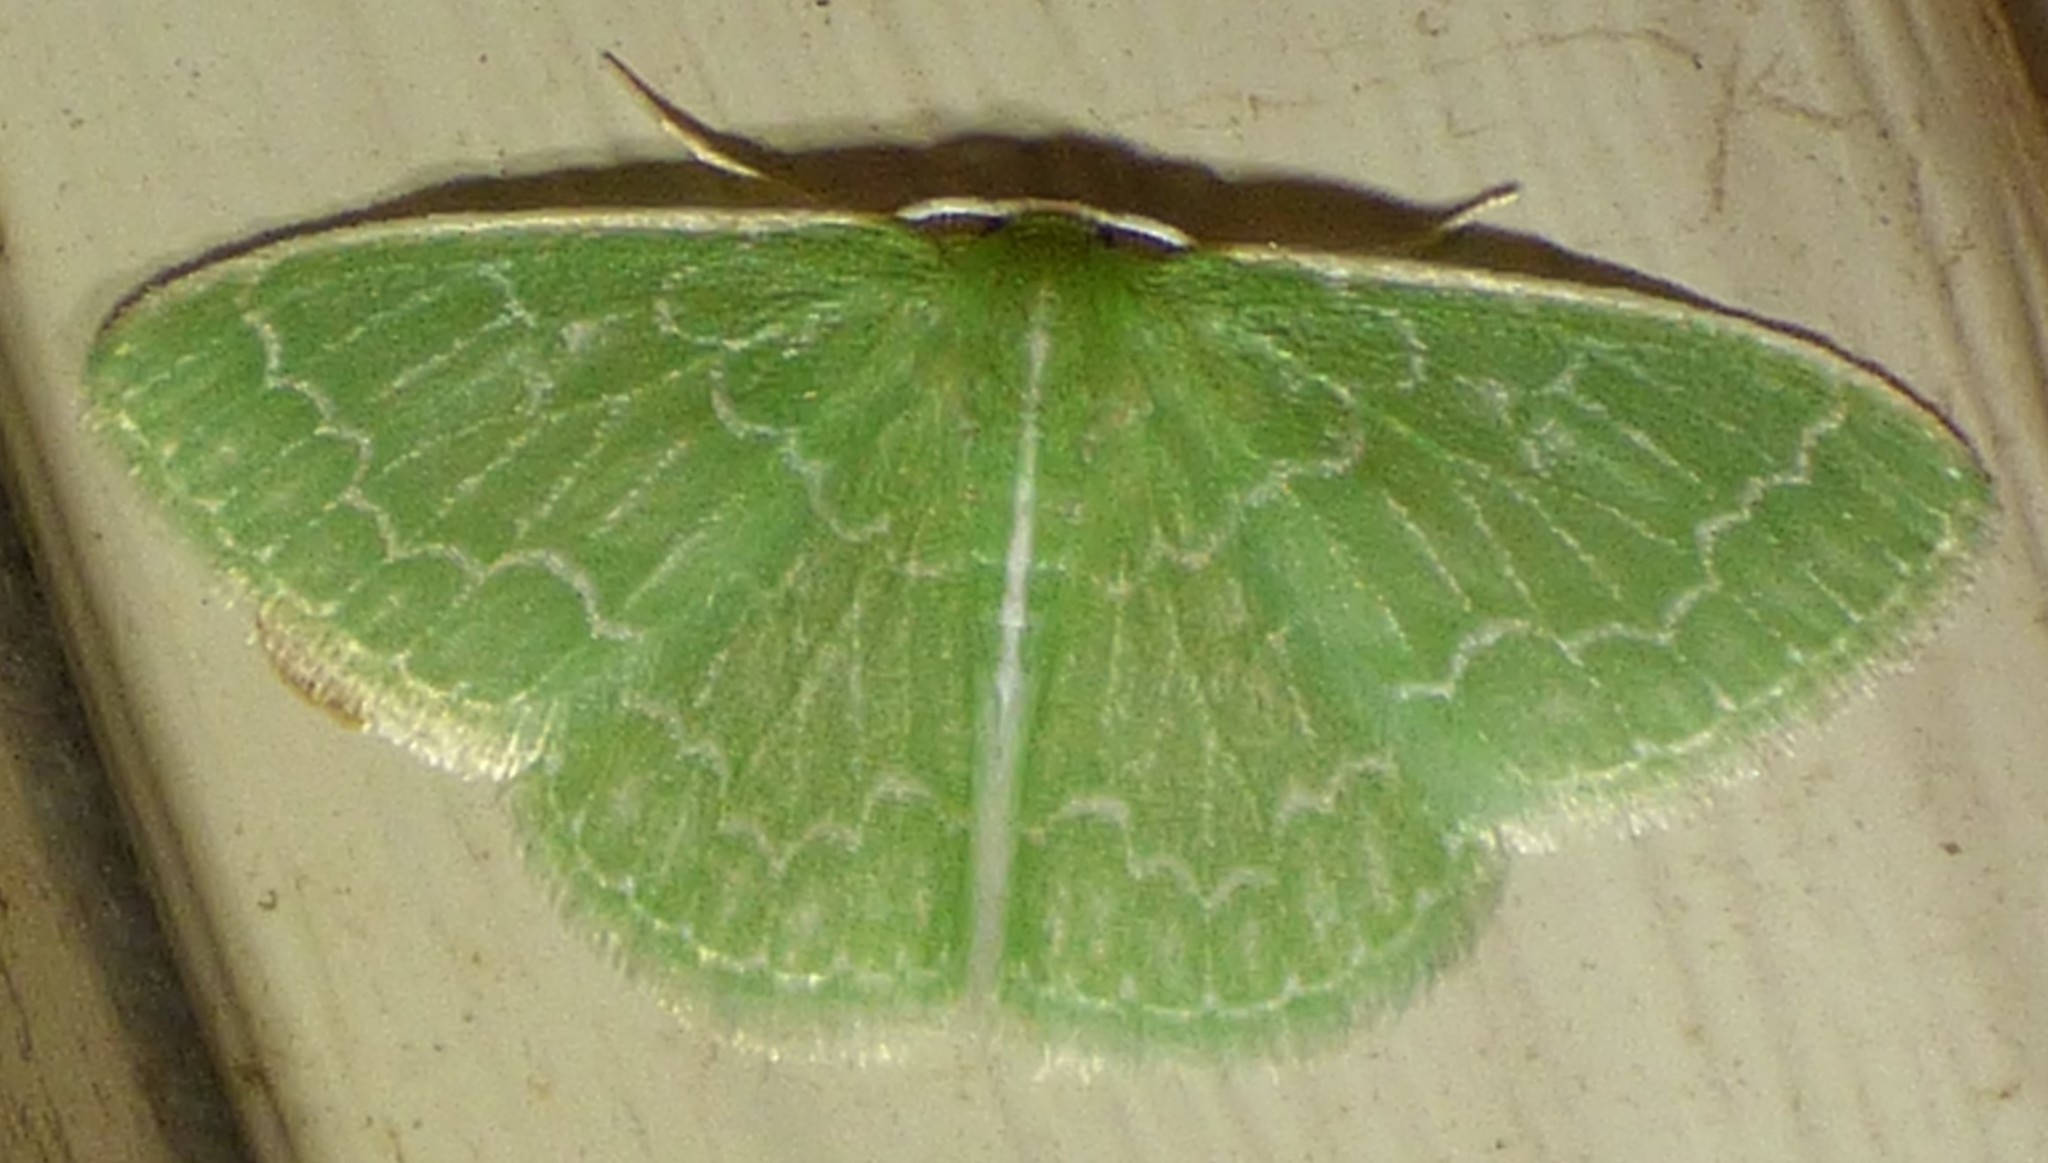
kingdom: Animalia
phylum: Arthropoda
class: Insecta
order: Lepidoptera
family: Geometridae
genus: Synchlora
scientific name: Synchlora frondaria
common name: Southern emerald
